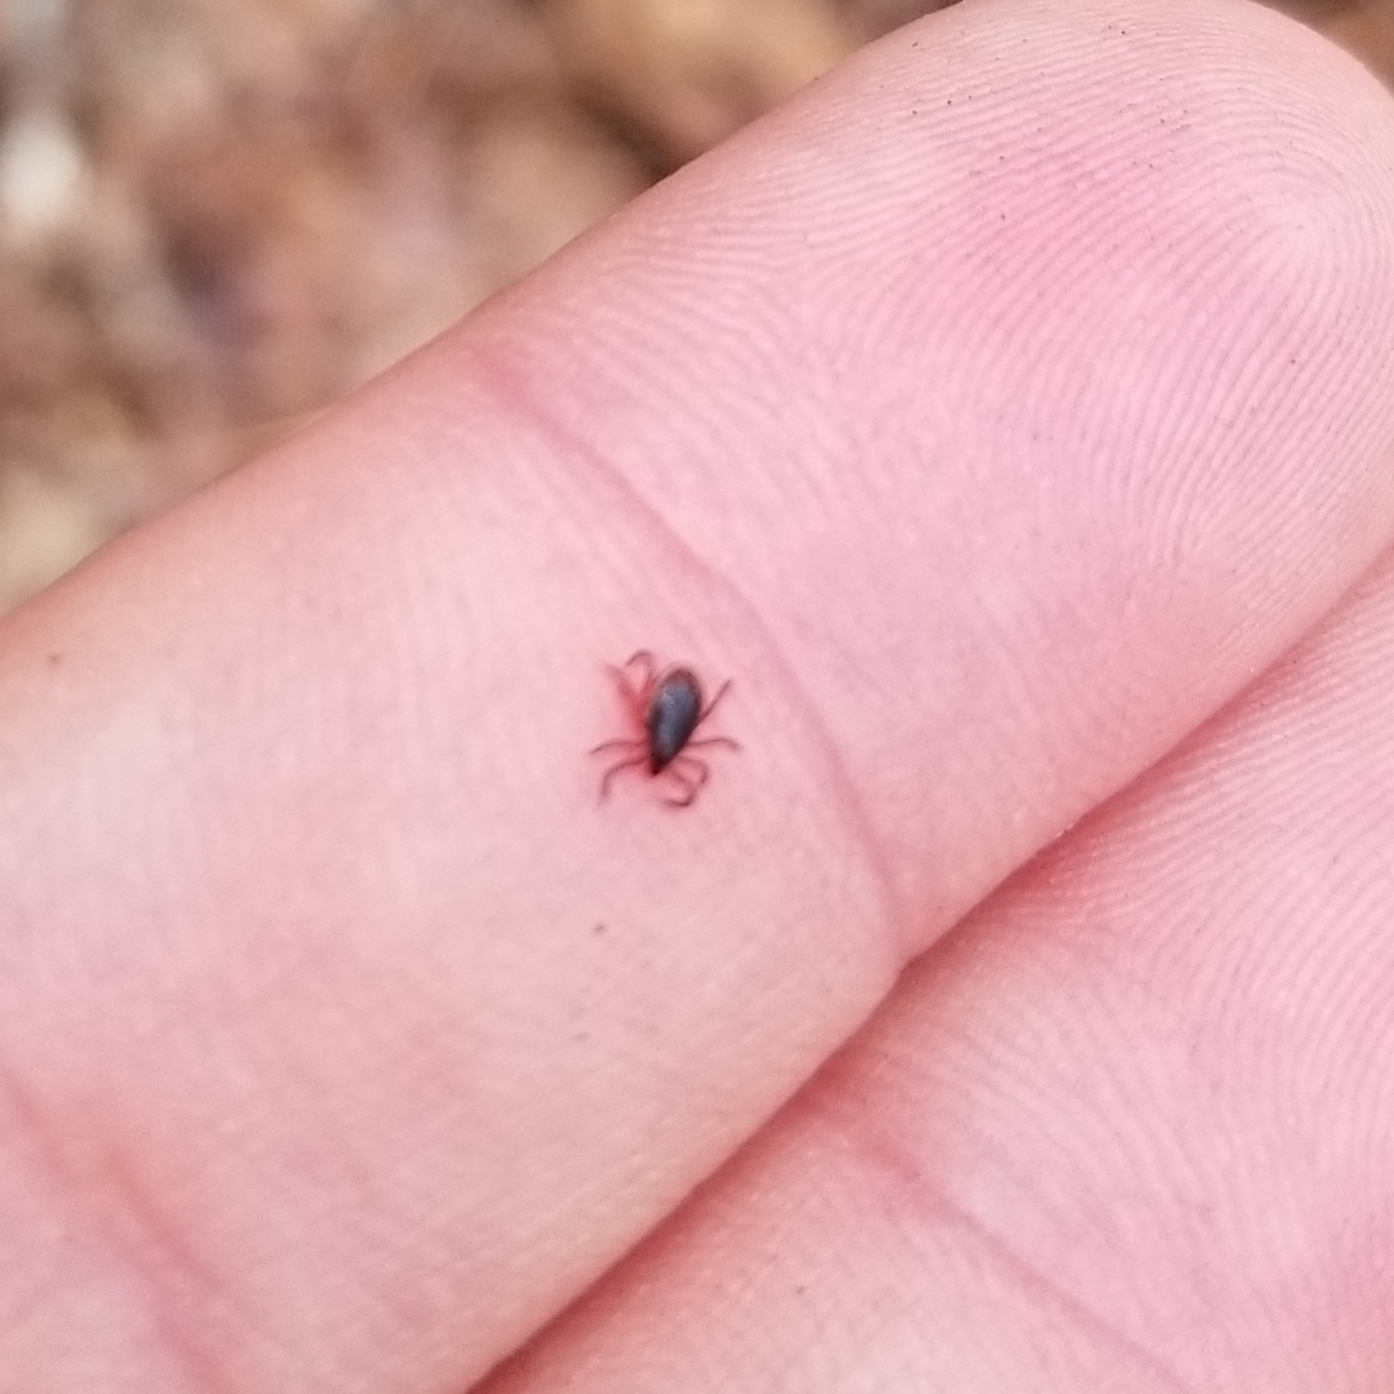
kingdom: Animalia
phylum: Arthropoda
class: Arachnida
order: Ixodida
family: Ixodidae
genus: Ixodes
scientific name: Ixodes scapularis
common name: Black legged tick
